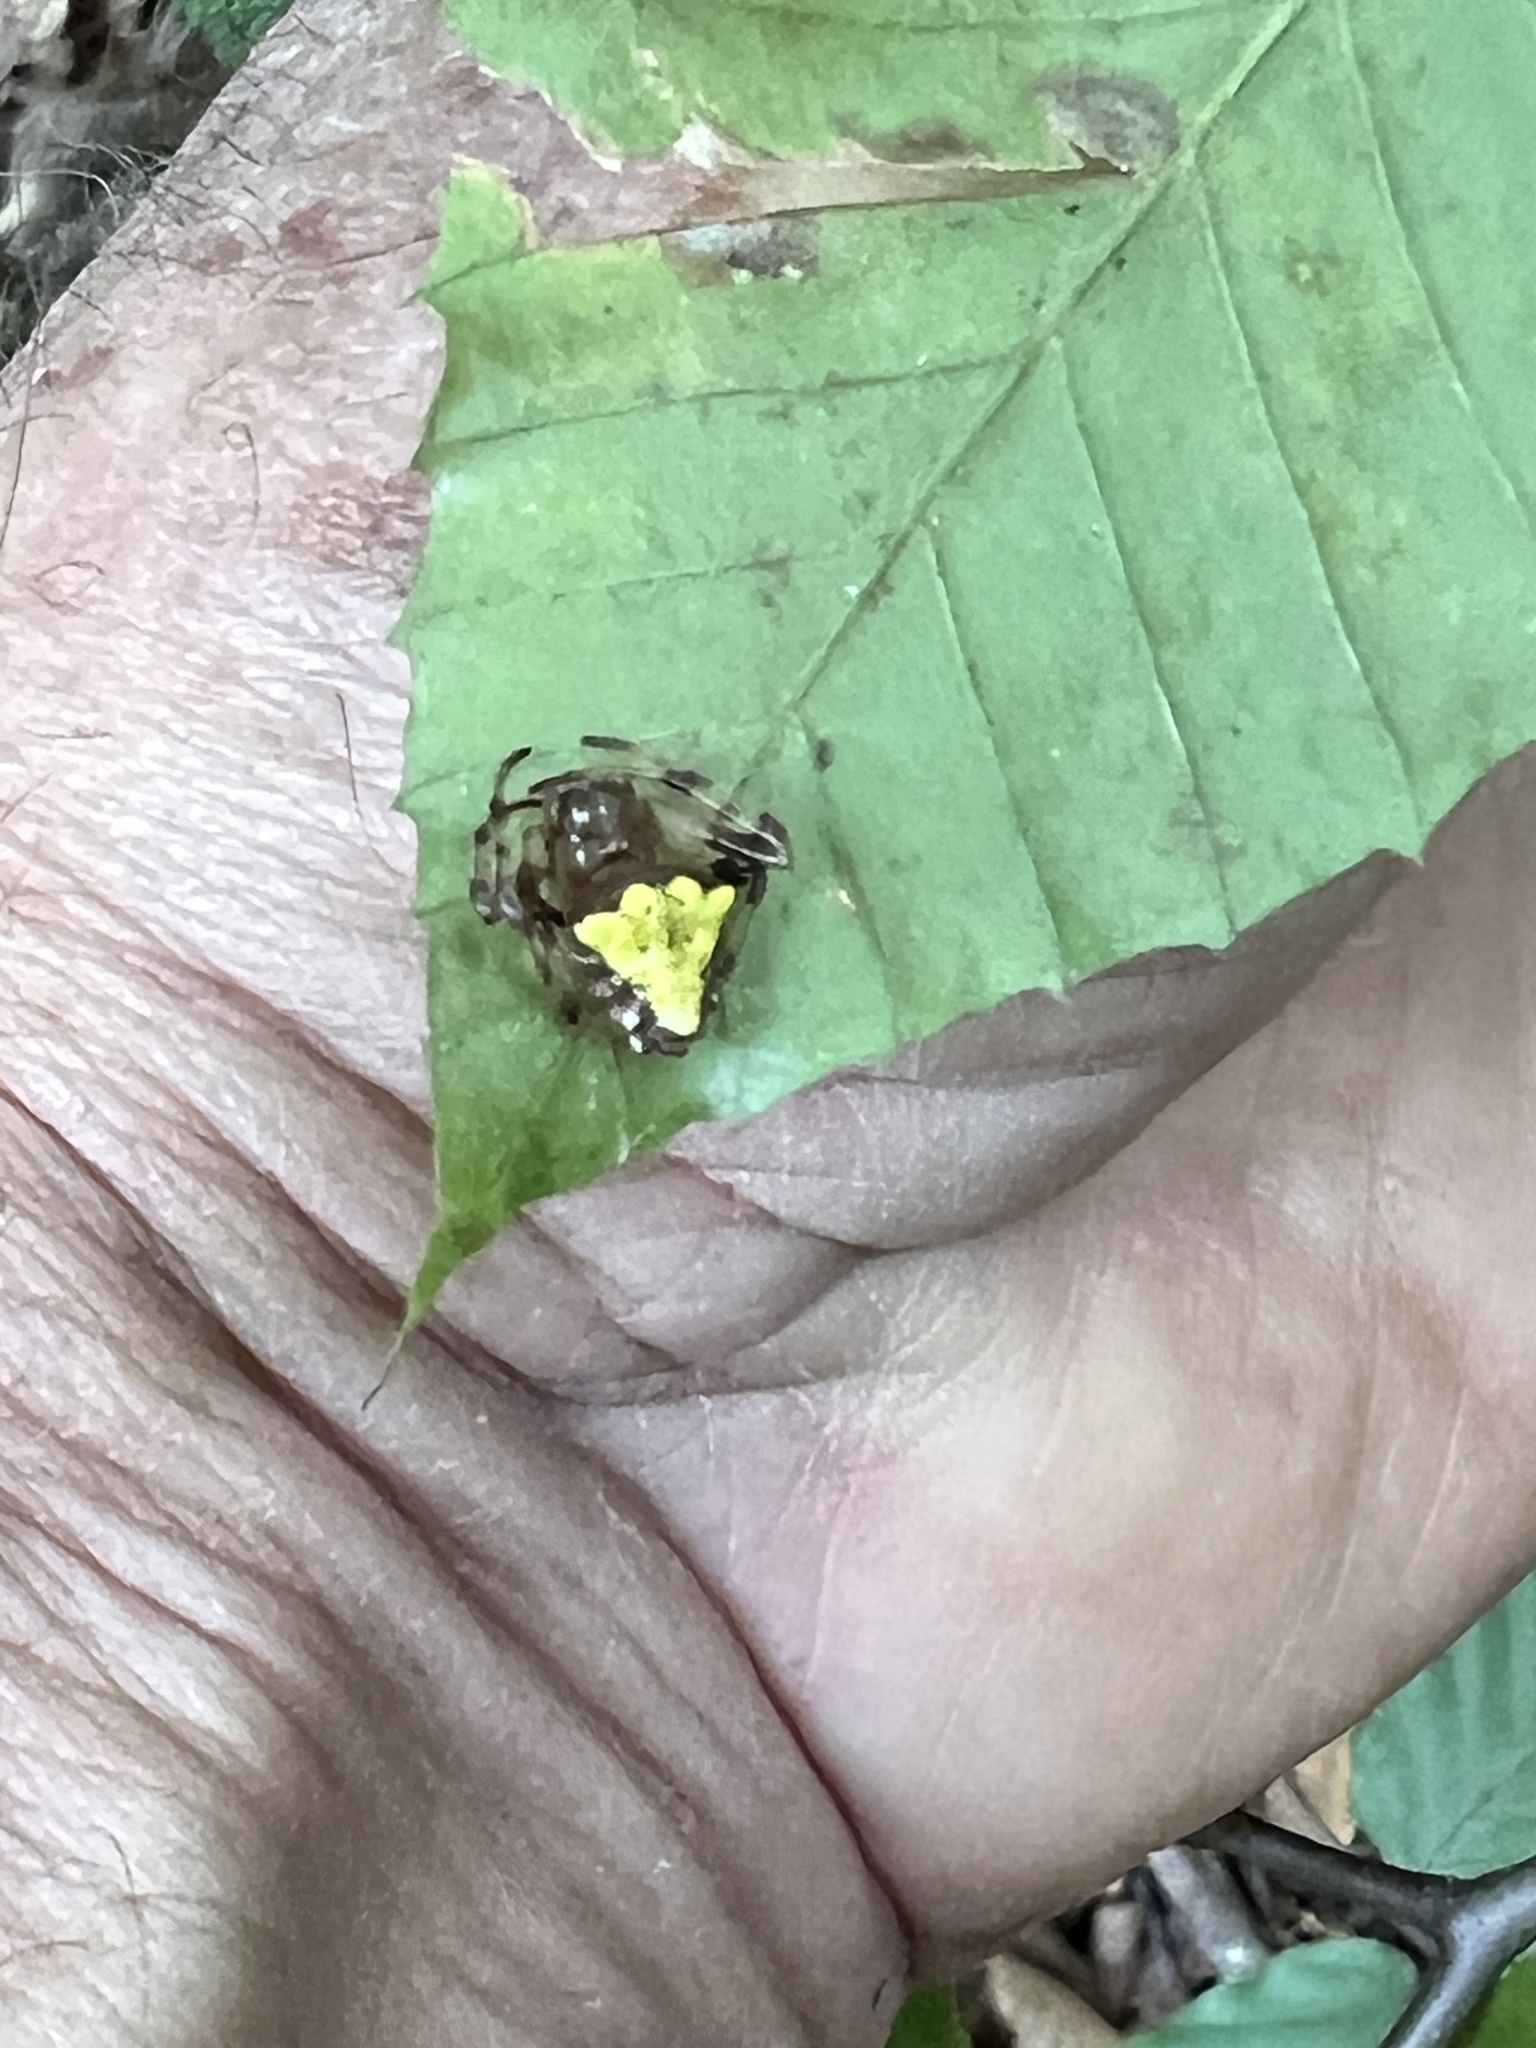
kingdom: Animalia
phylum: Arthropoda
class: Arachnida
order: Araneae
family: Araneidae
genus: Verrucosa
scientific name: Verrucosa arenata
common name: Orb weavers
